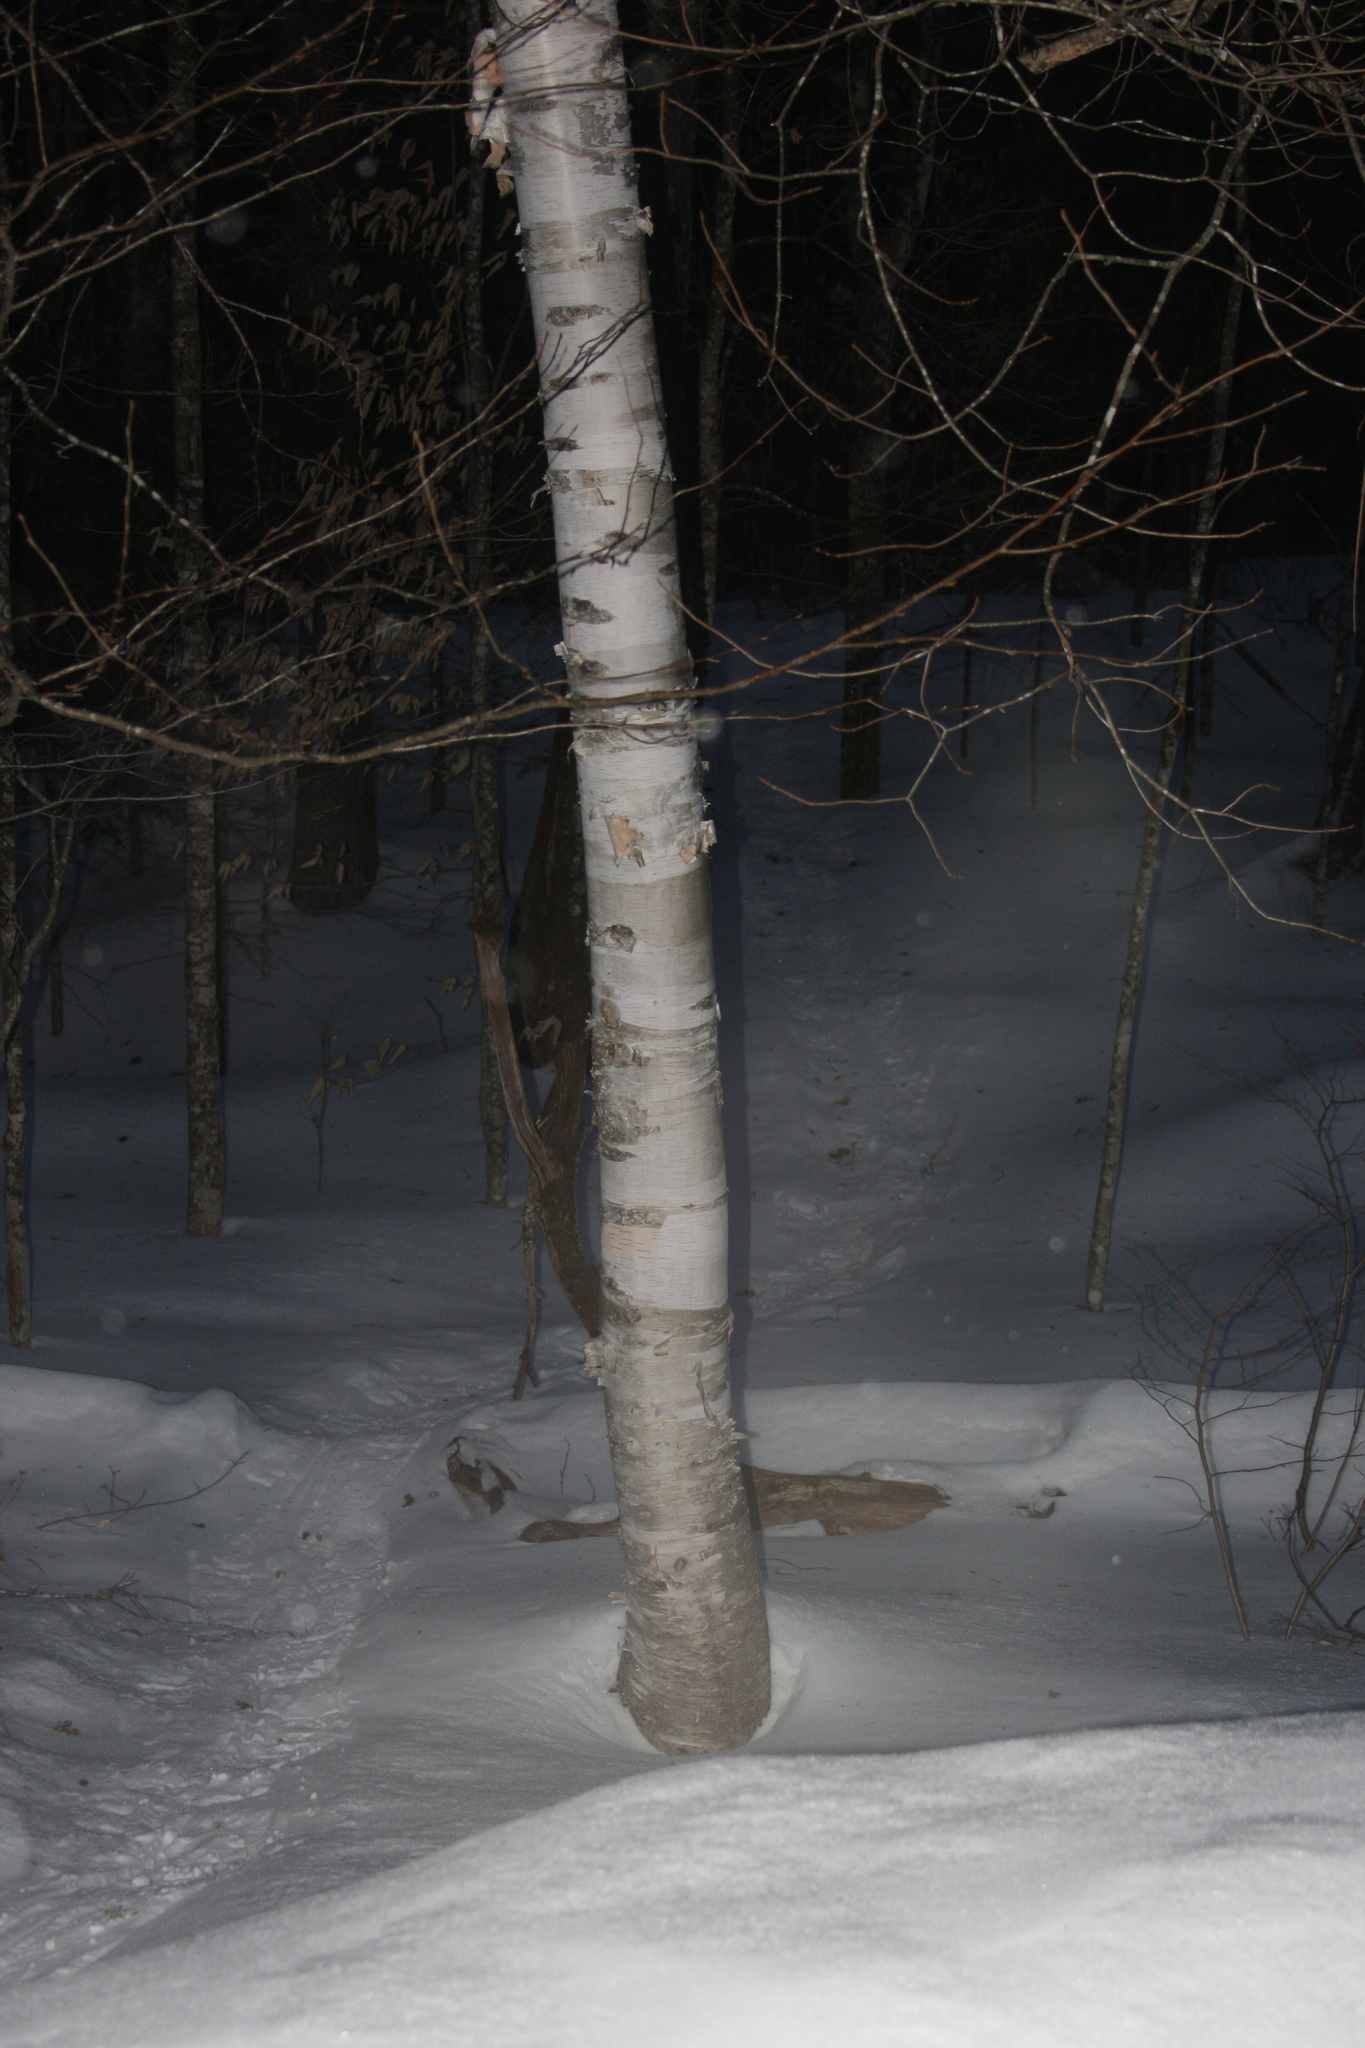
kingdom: Plantae
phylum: Tracheophyta
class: Magnoliopsida
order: Fagales
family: Betulaceae
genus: Betula
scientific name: Betula papyrifera
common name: Paper birch
